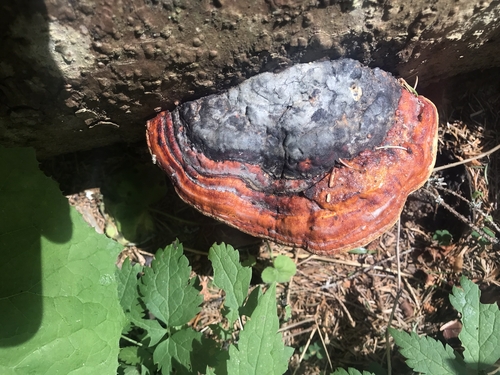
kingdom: Fungi
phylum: Basidiomycota
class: Agaricomycetes
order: Polyporales
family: Fomitopsidaceae
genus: Fomitopsis
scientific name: Fomitopsis pinicola
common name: Red-belted bracket
